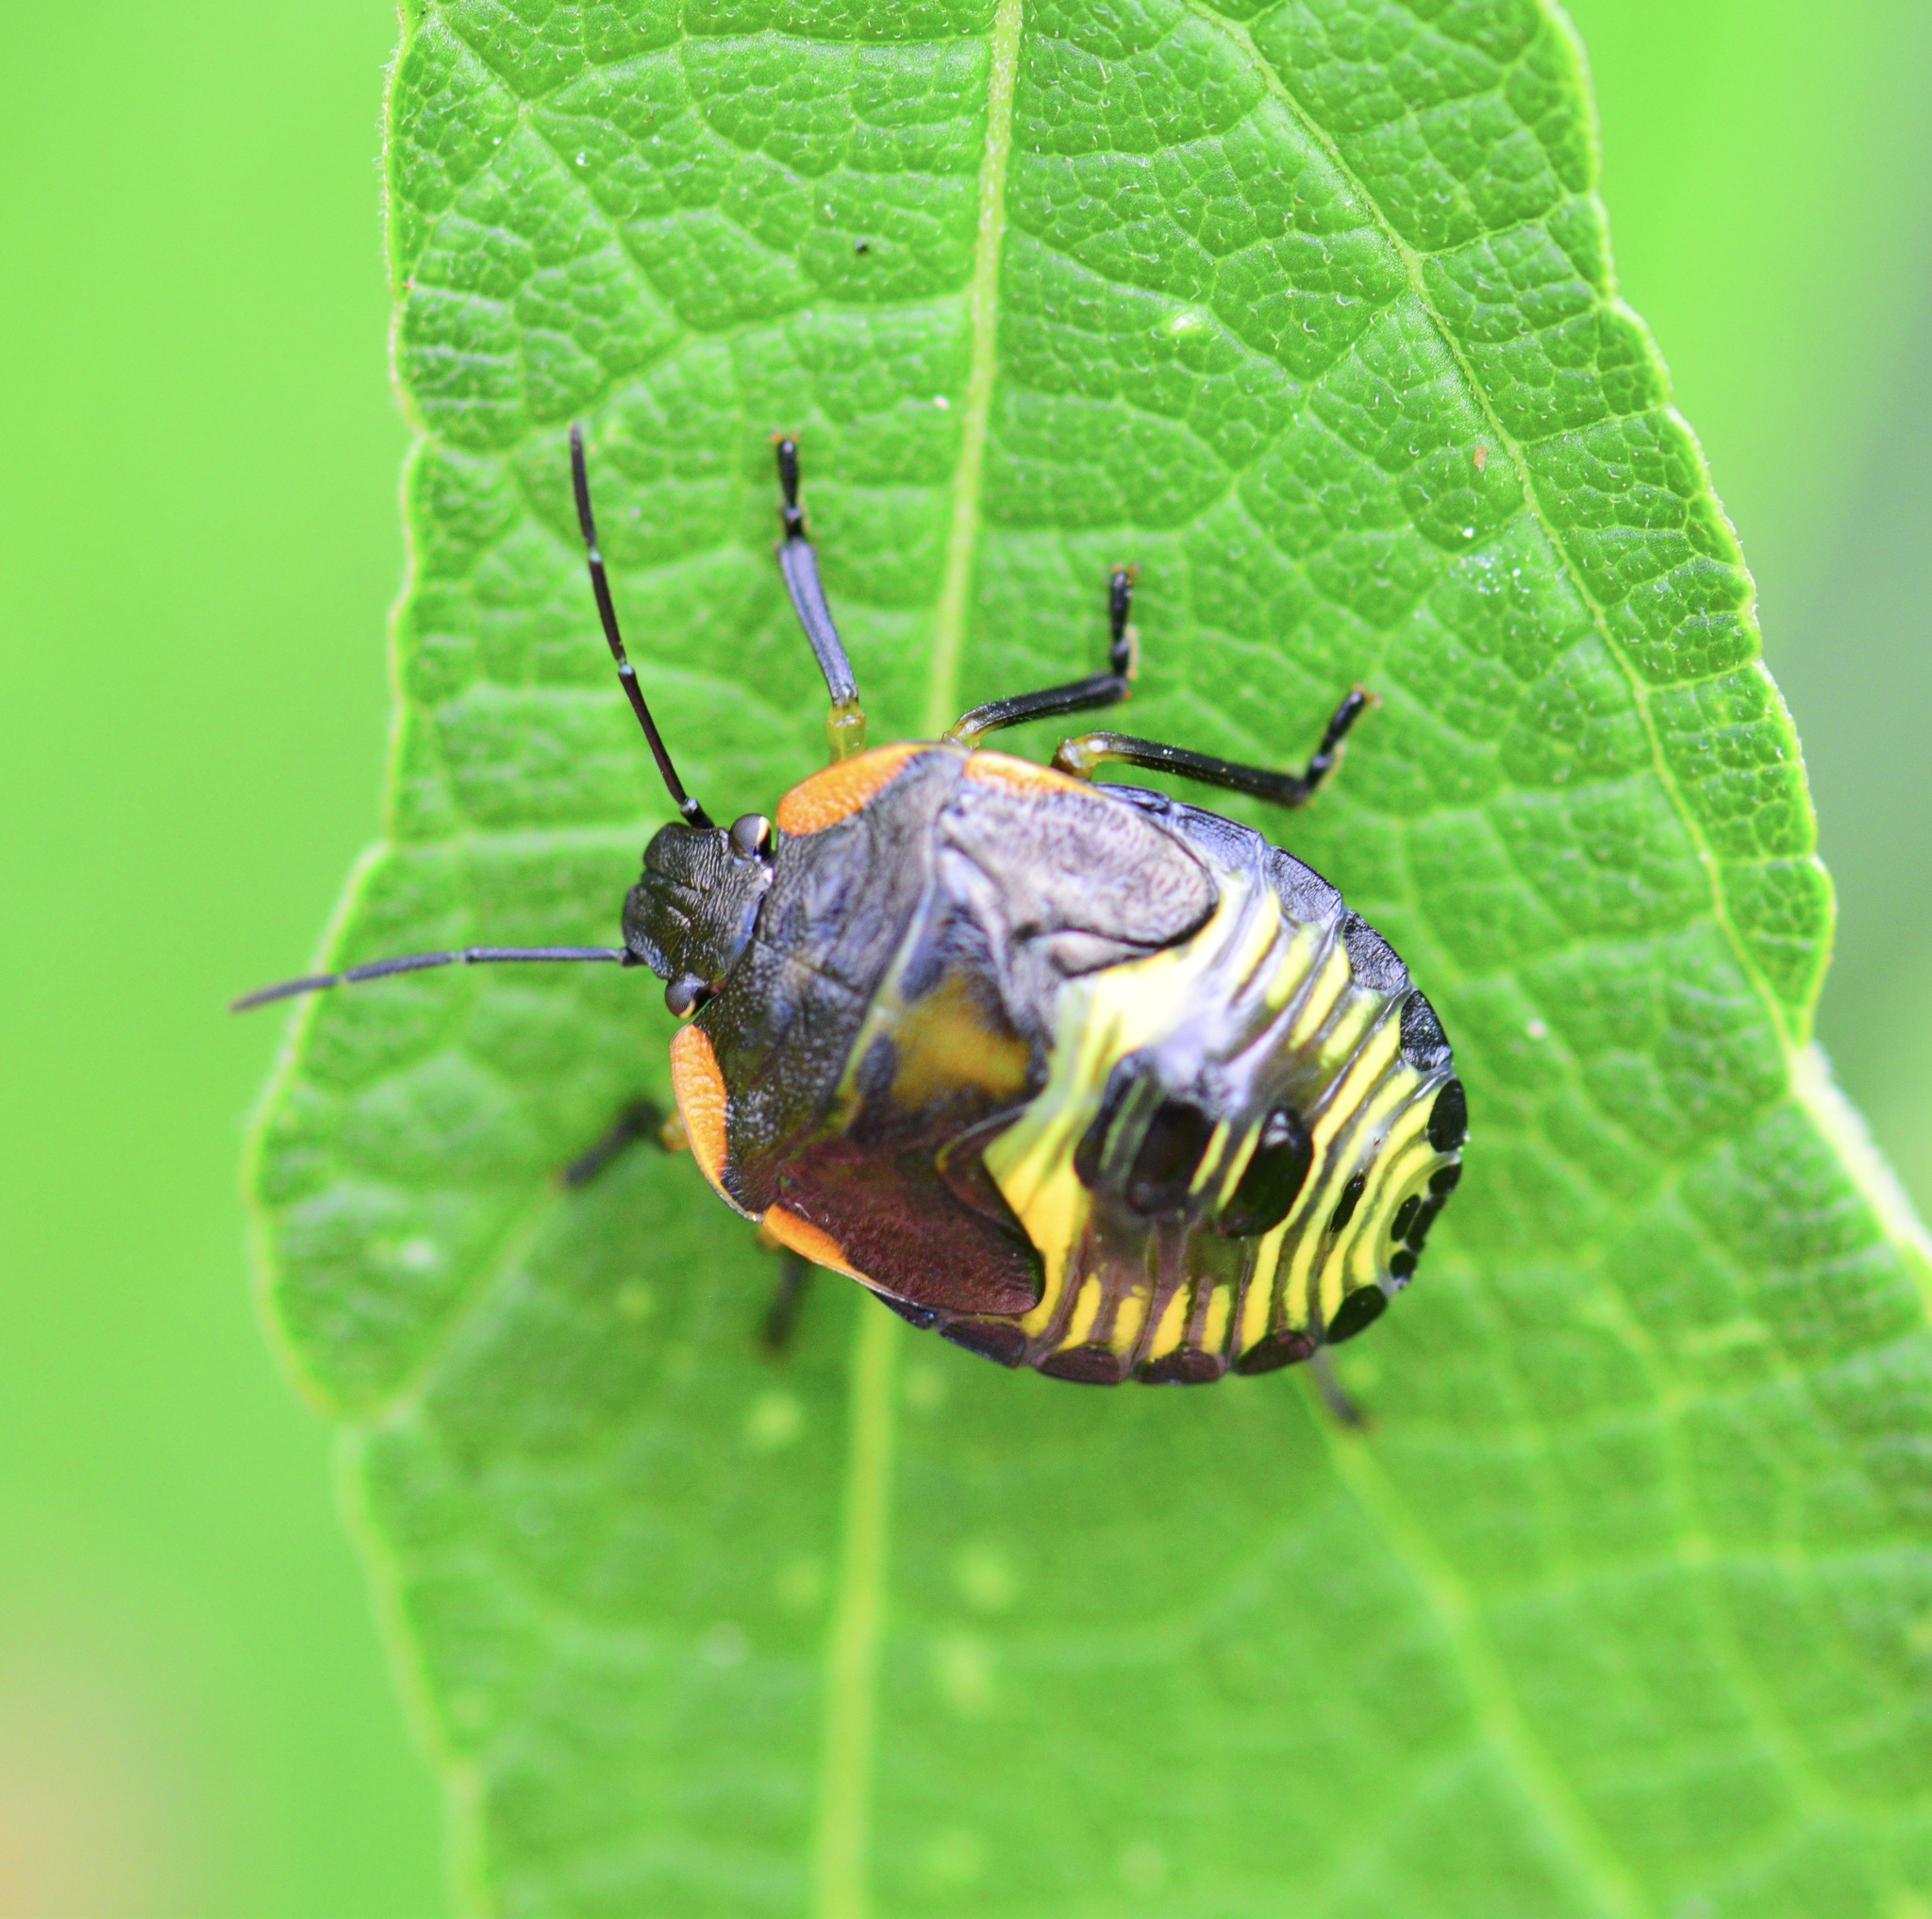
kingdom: Animalia
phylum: Arthropoda
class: Insecta
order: Hemiptera
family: Pentatomidae
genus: Chinavia
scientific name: Chinavia hilaris
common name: Green stink bug
